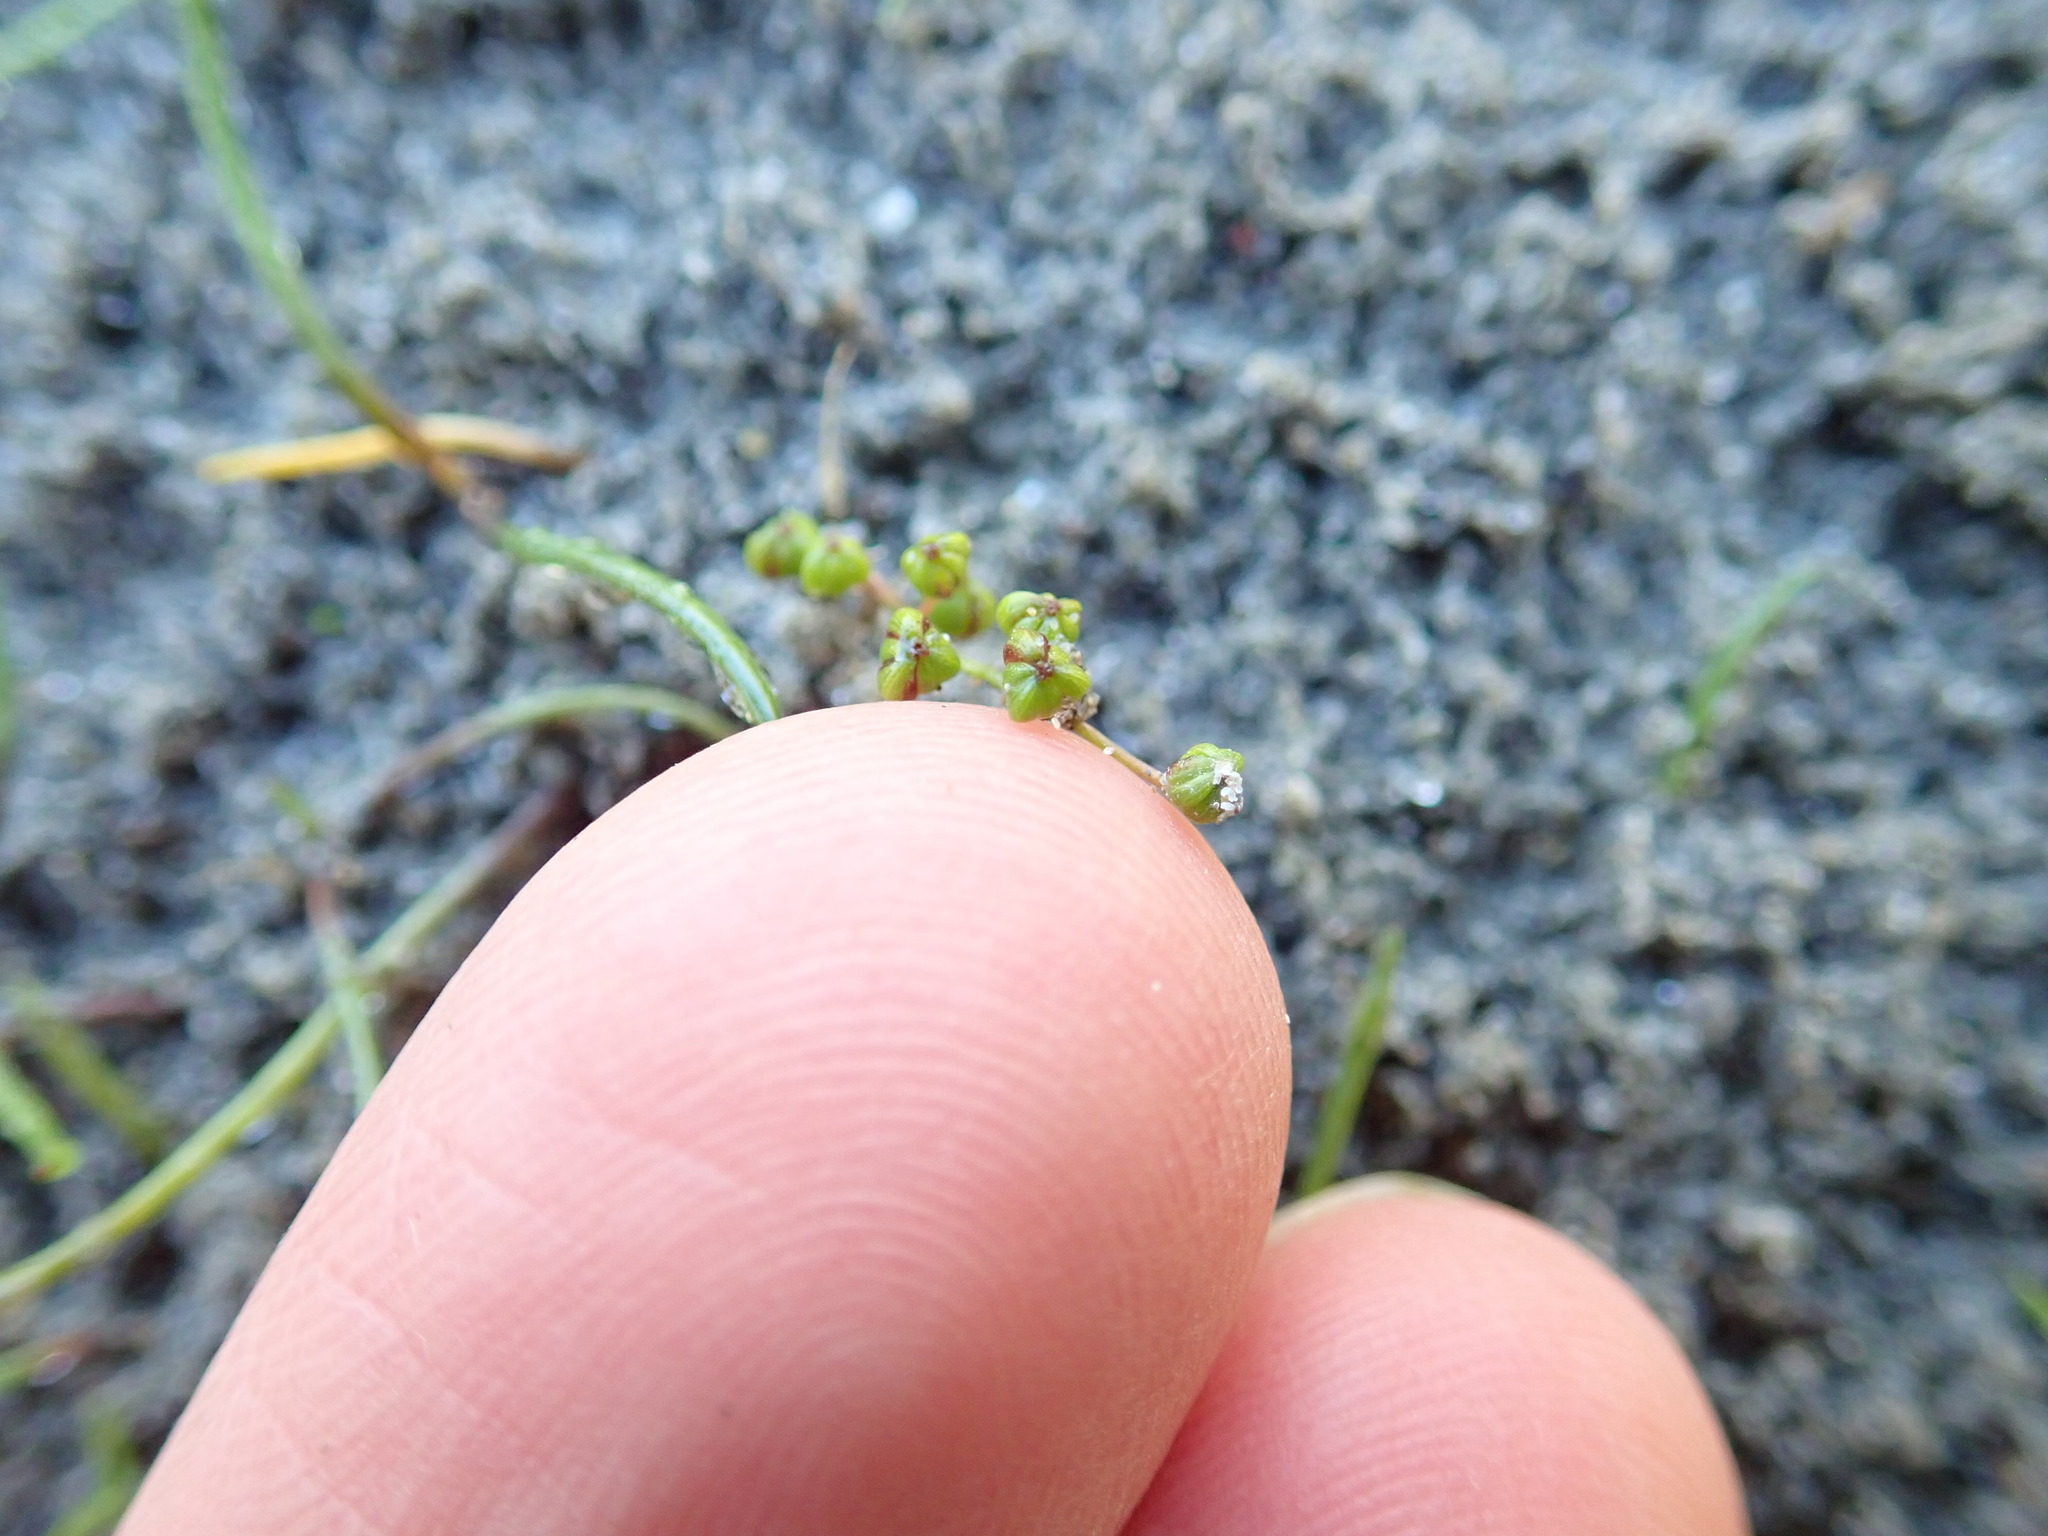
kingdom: Plantae
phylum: Tracheophyta
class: Liliopsida
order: Alismatales
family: Juncaginaceae
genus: Triglochin
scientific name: Triglochin striata
